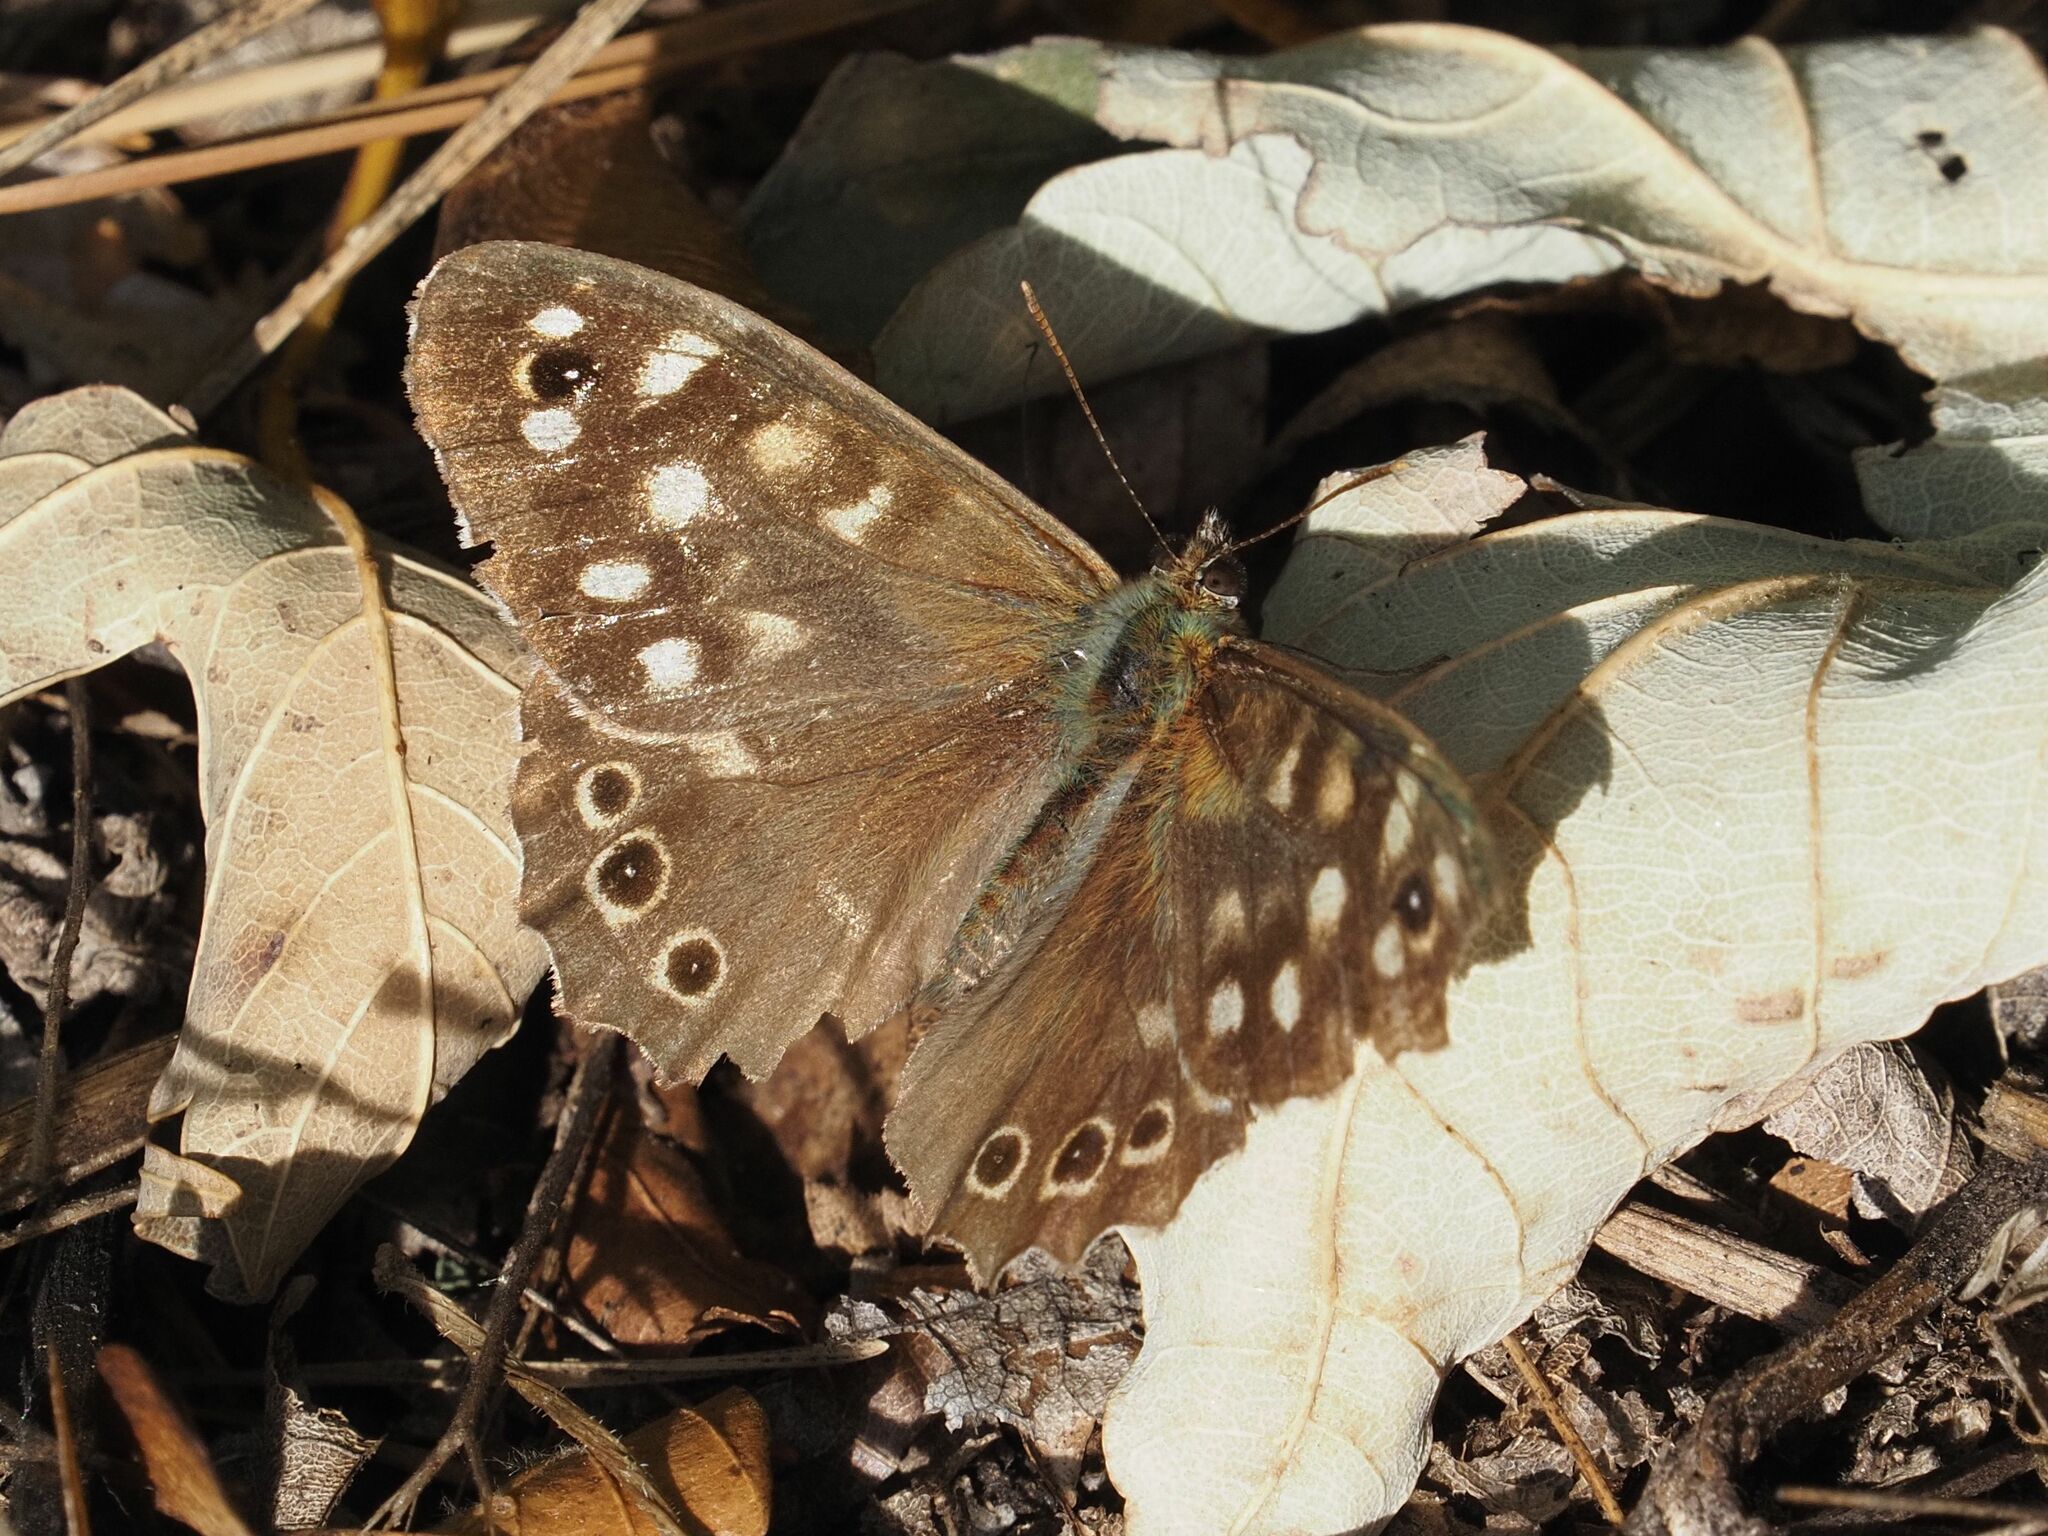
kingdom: Animalia
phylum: Arthropoda
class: Insecta
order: Lepidoptera
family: Nymphalidae
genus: Pararge
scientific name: Pararge aegeria
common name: Speckled wood
